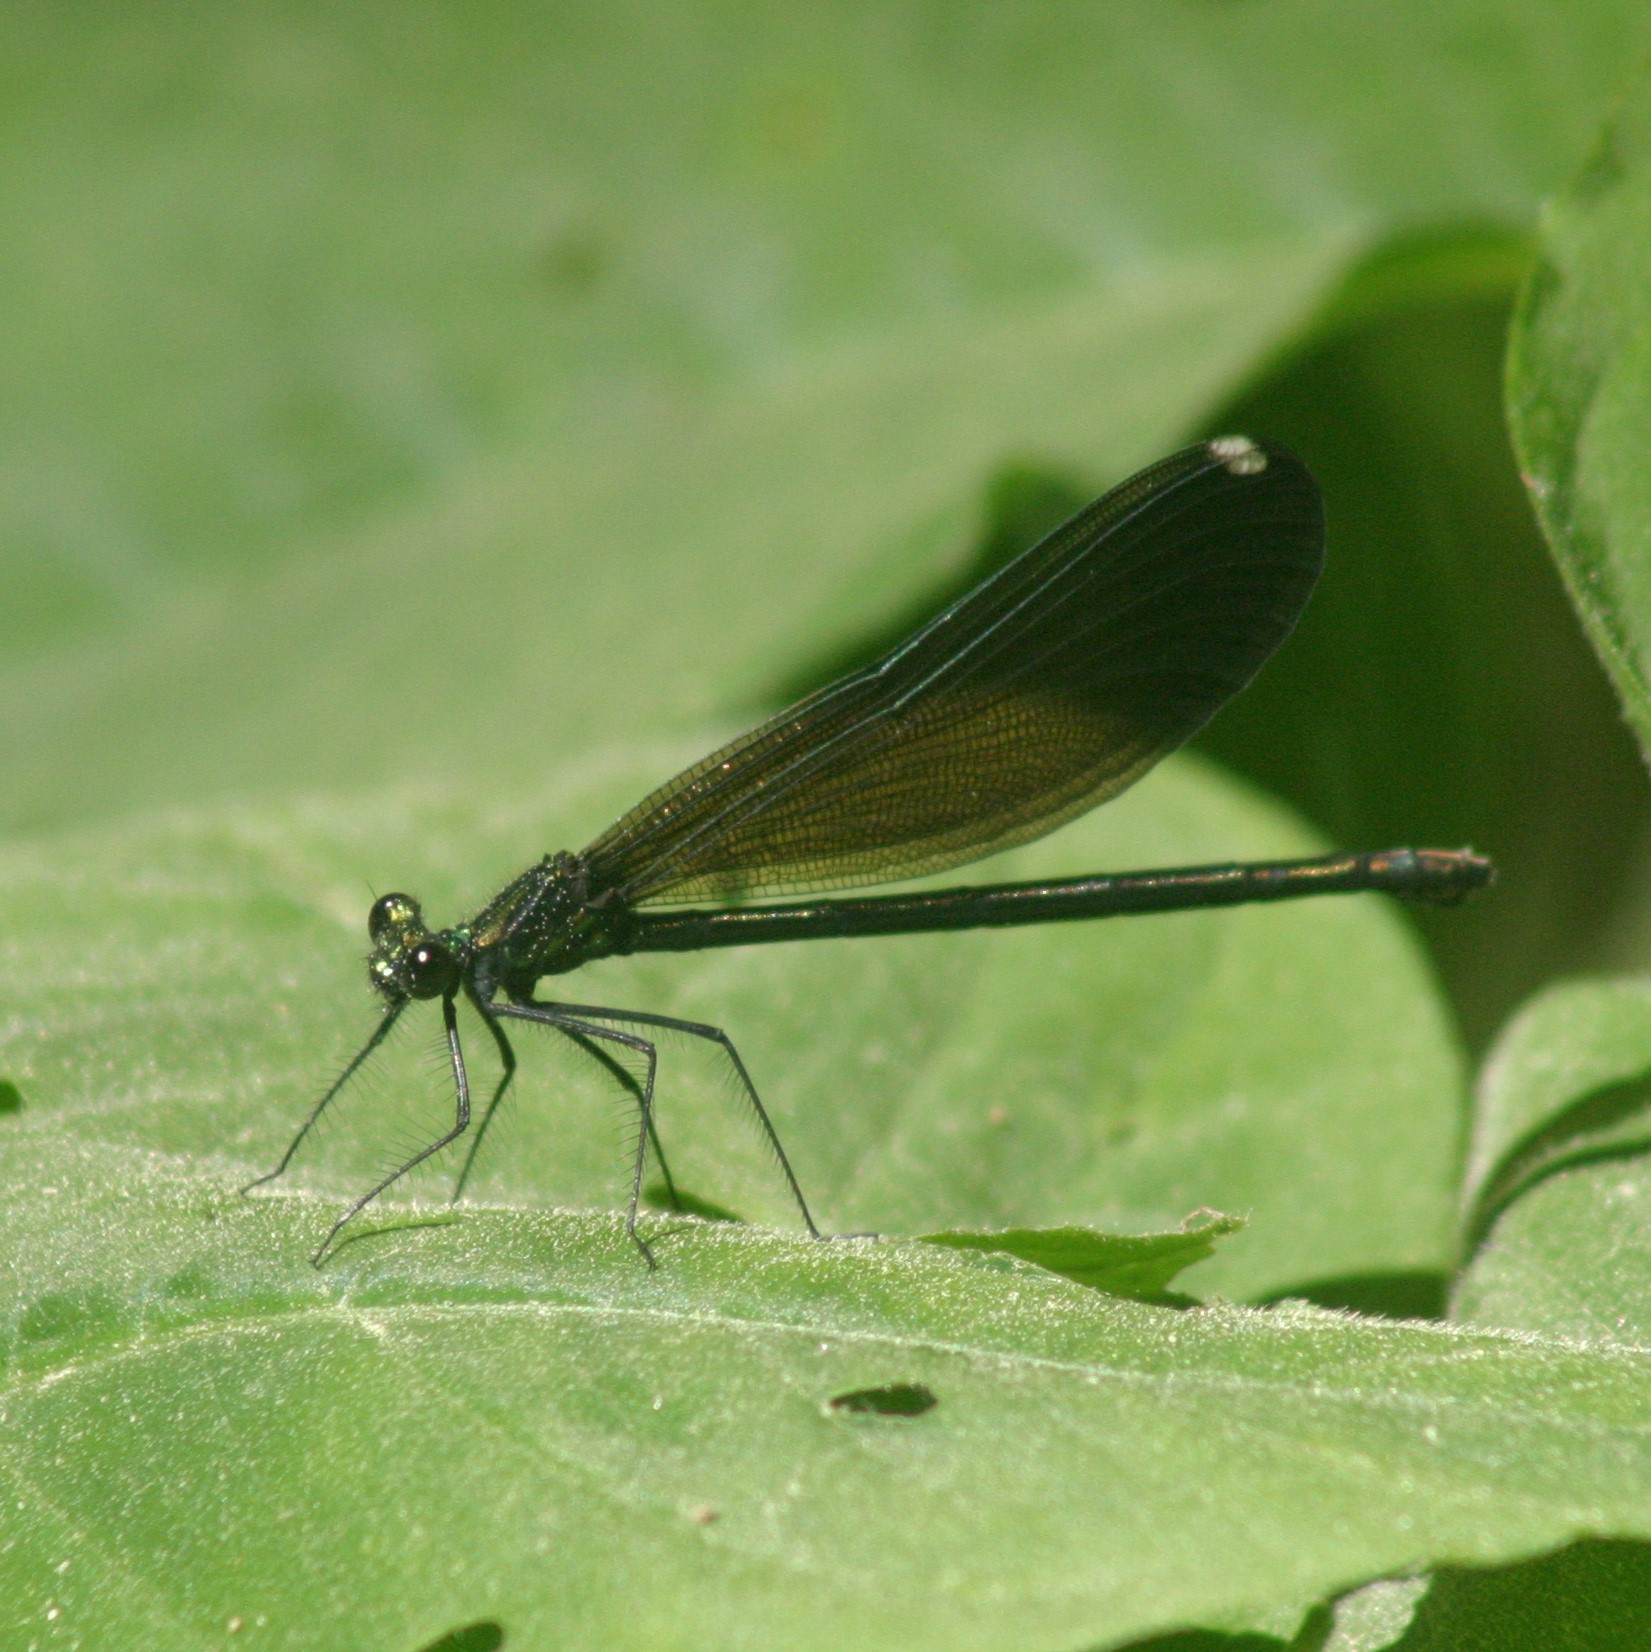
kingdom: Animalia
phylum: Arthropoda
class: Insecta
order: Odonata
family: Calopterygidae
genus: Calopteryx
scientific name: Calopteryx maculata
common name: Ebony jewelwing
